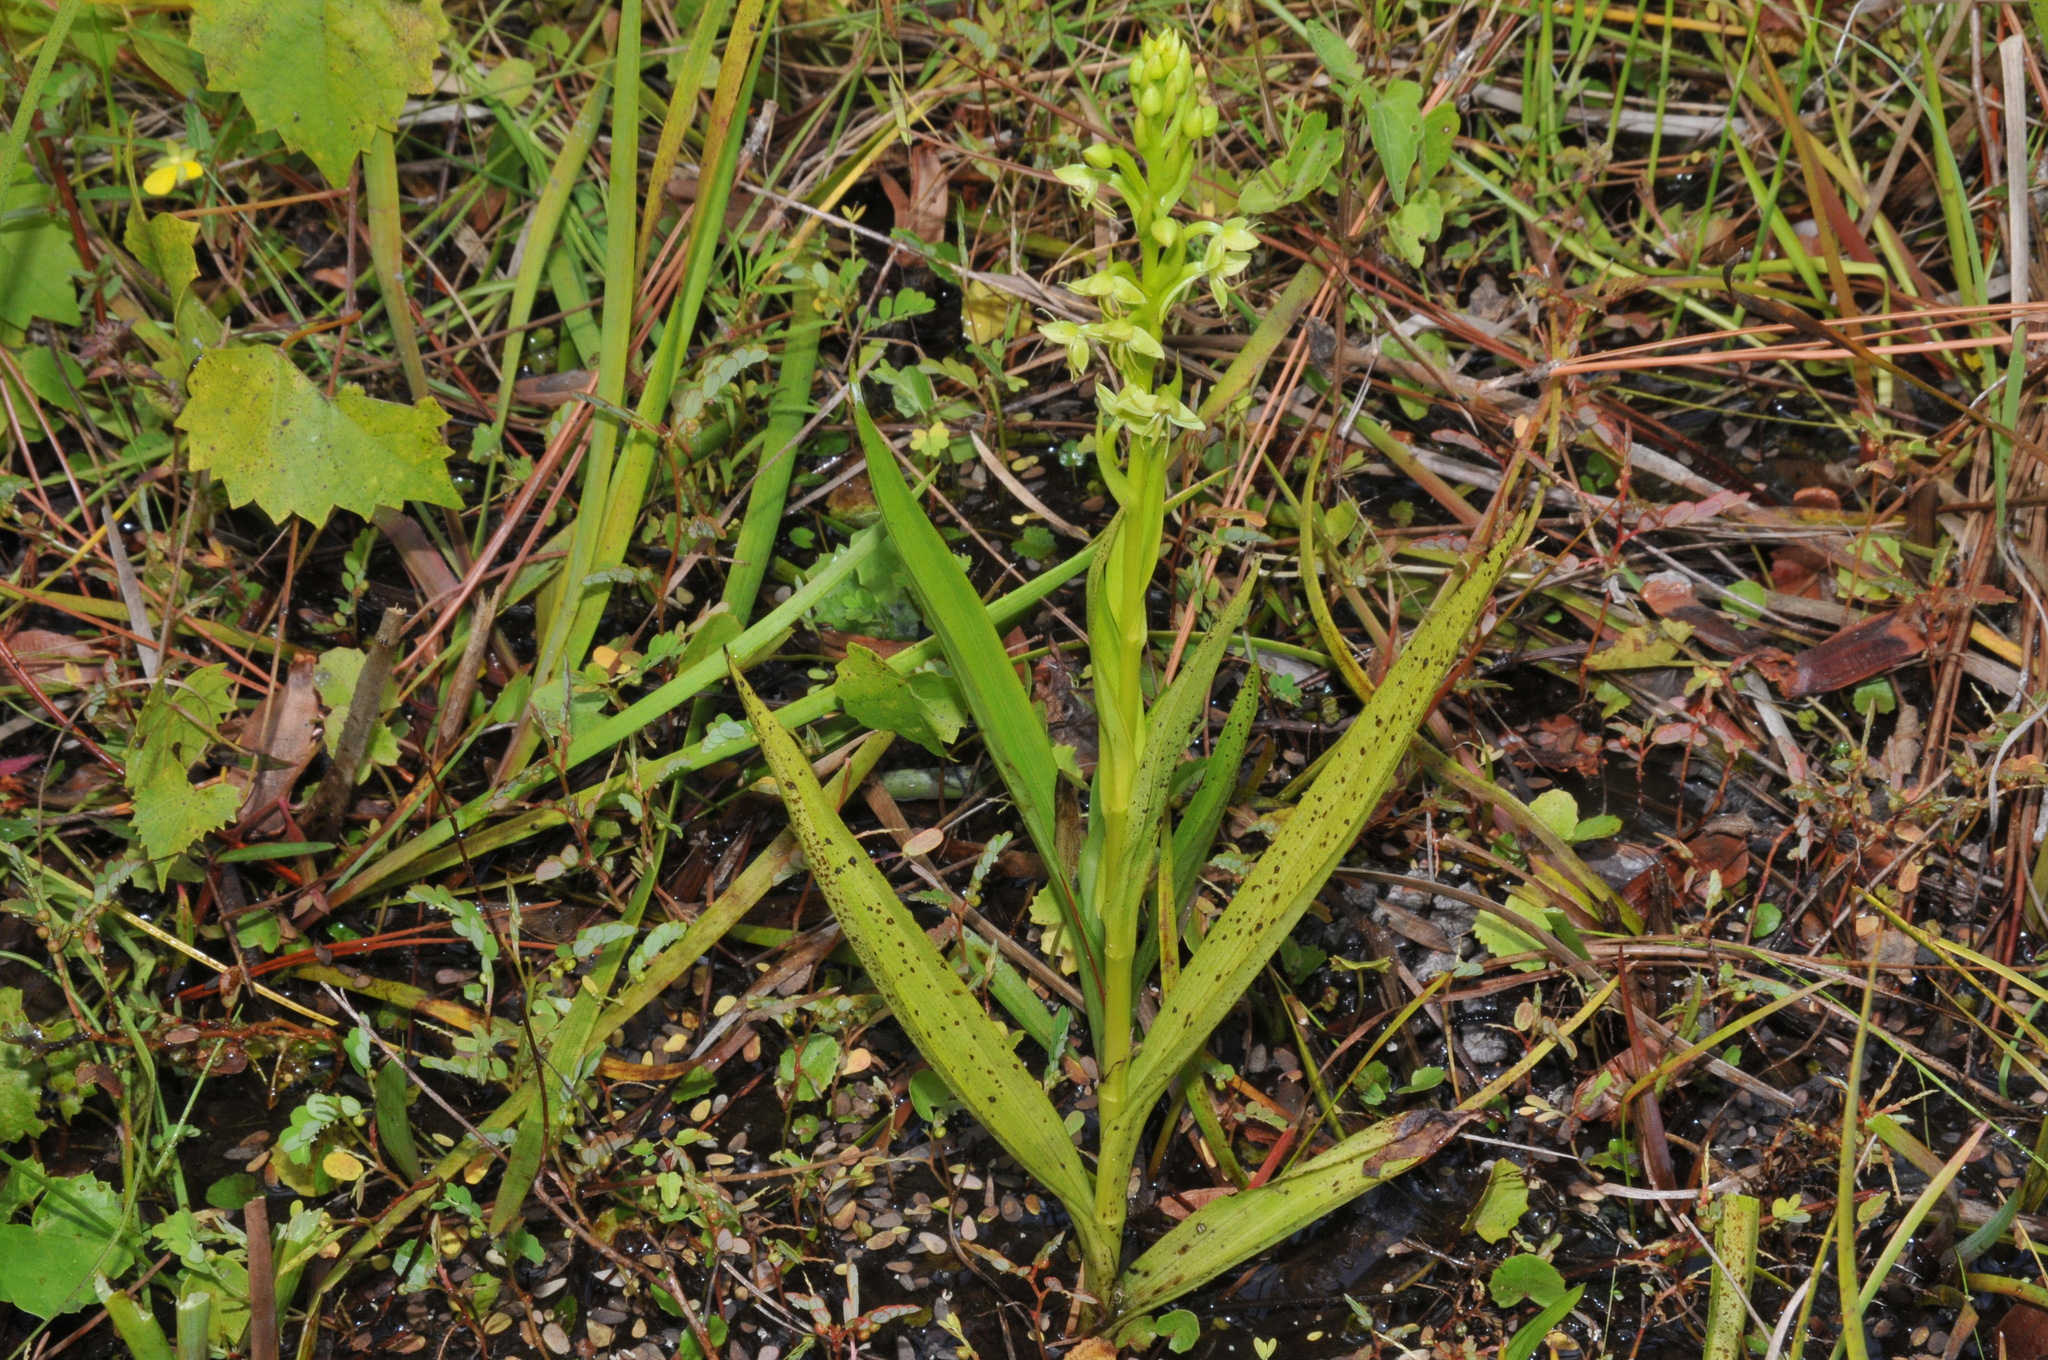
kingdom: Plantae
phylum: Tracheophyta
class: Liliopsida
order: Asparagales
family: Orchidaceae
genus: Habenaria
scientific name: Habenaria repens
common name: Water orchid
